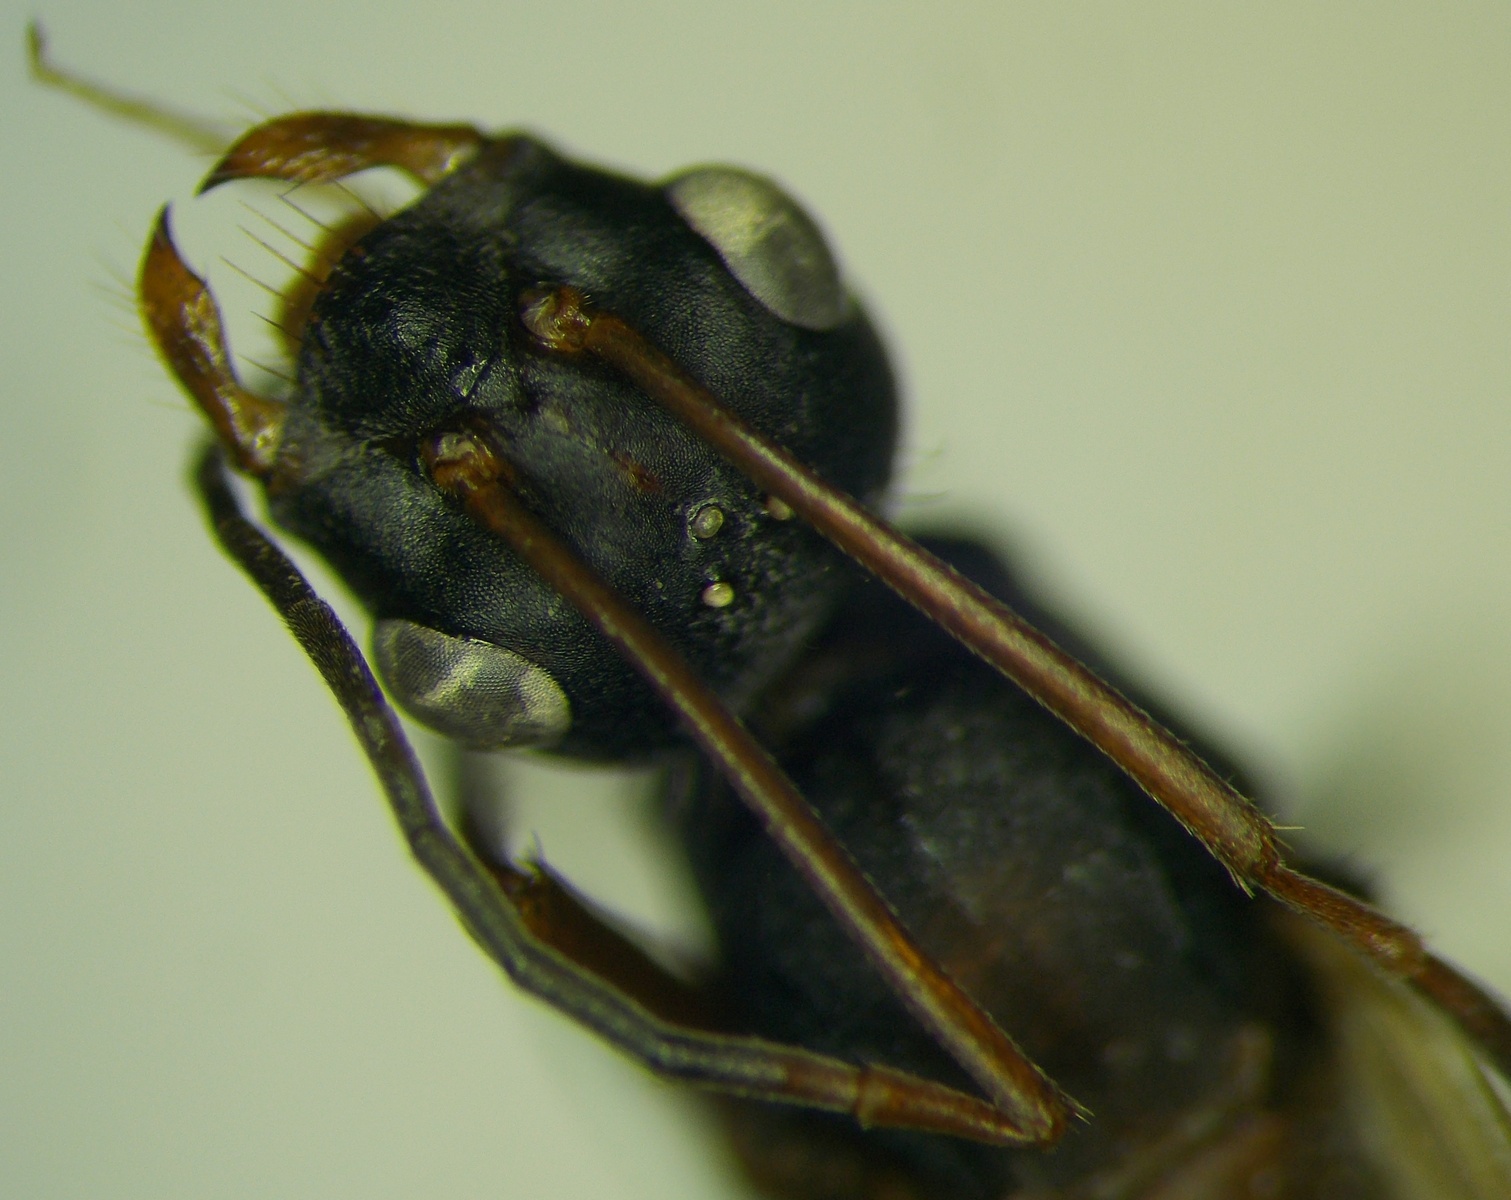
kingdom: Animalia
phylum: Arthropoda
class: Insecta
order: Hymenoptera
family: Formicidae
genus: Cataglyphis
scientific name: Cataglyphis nodus
